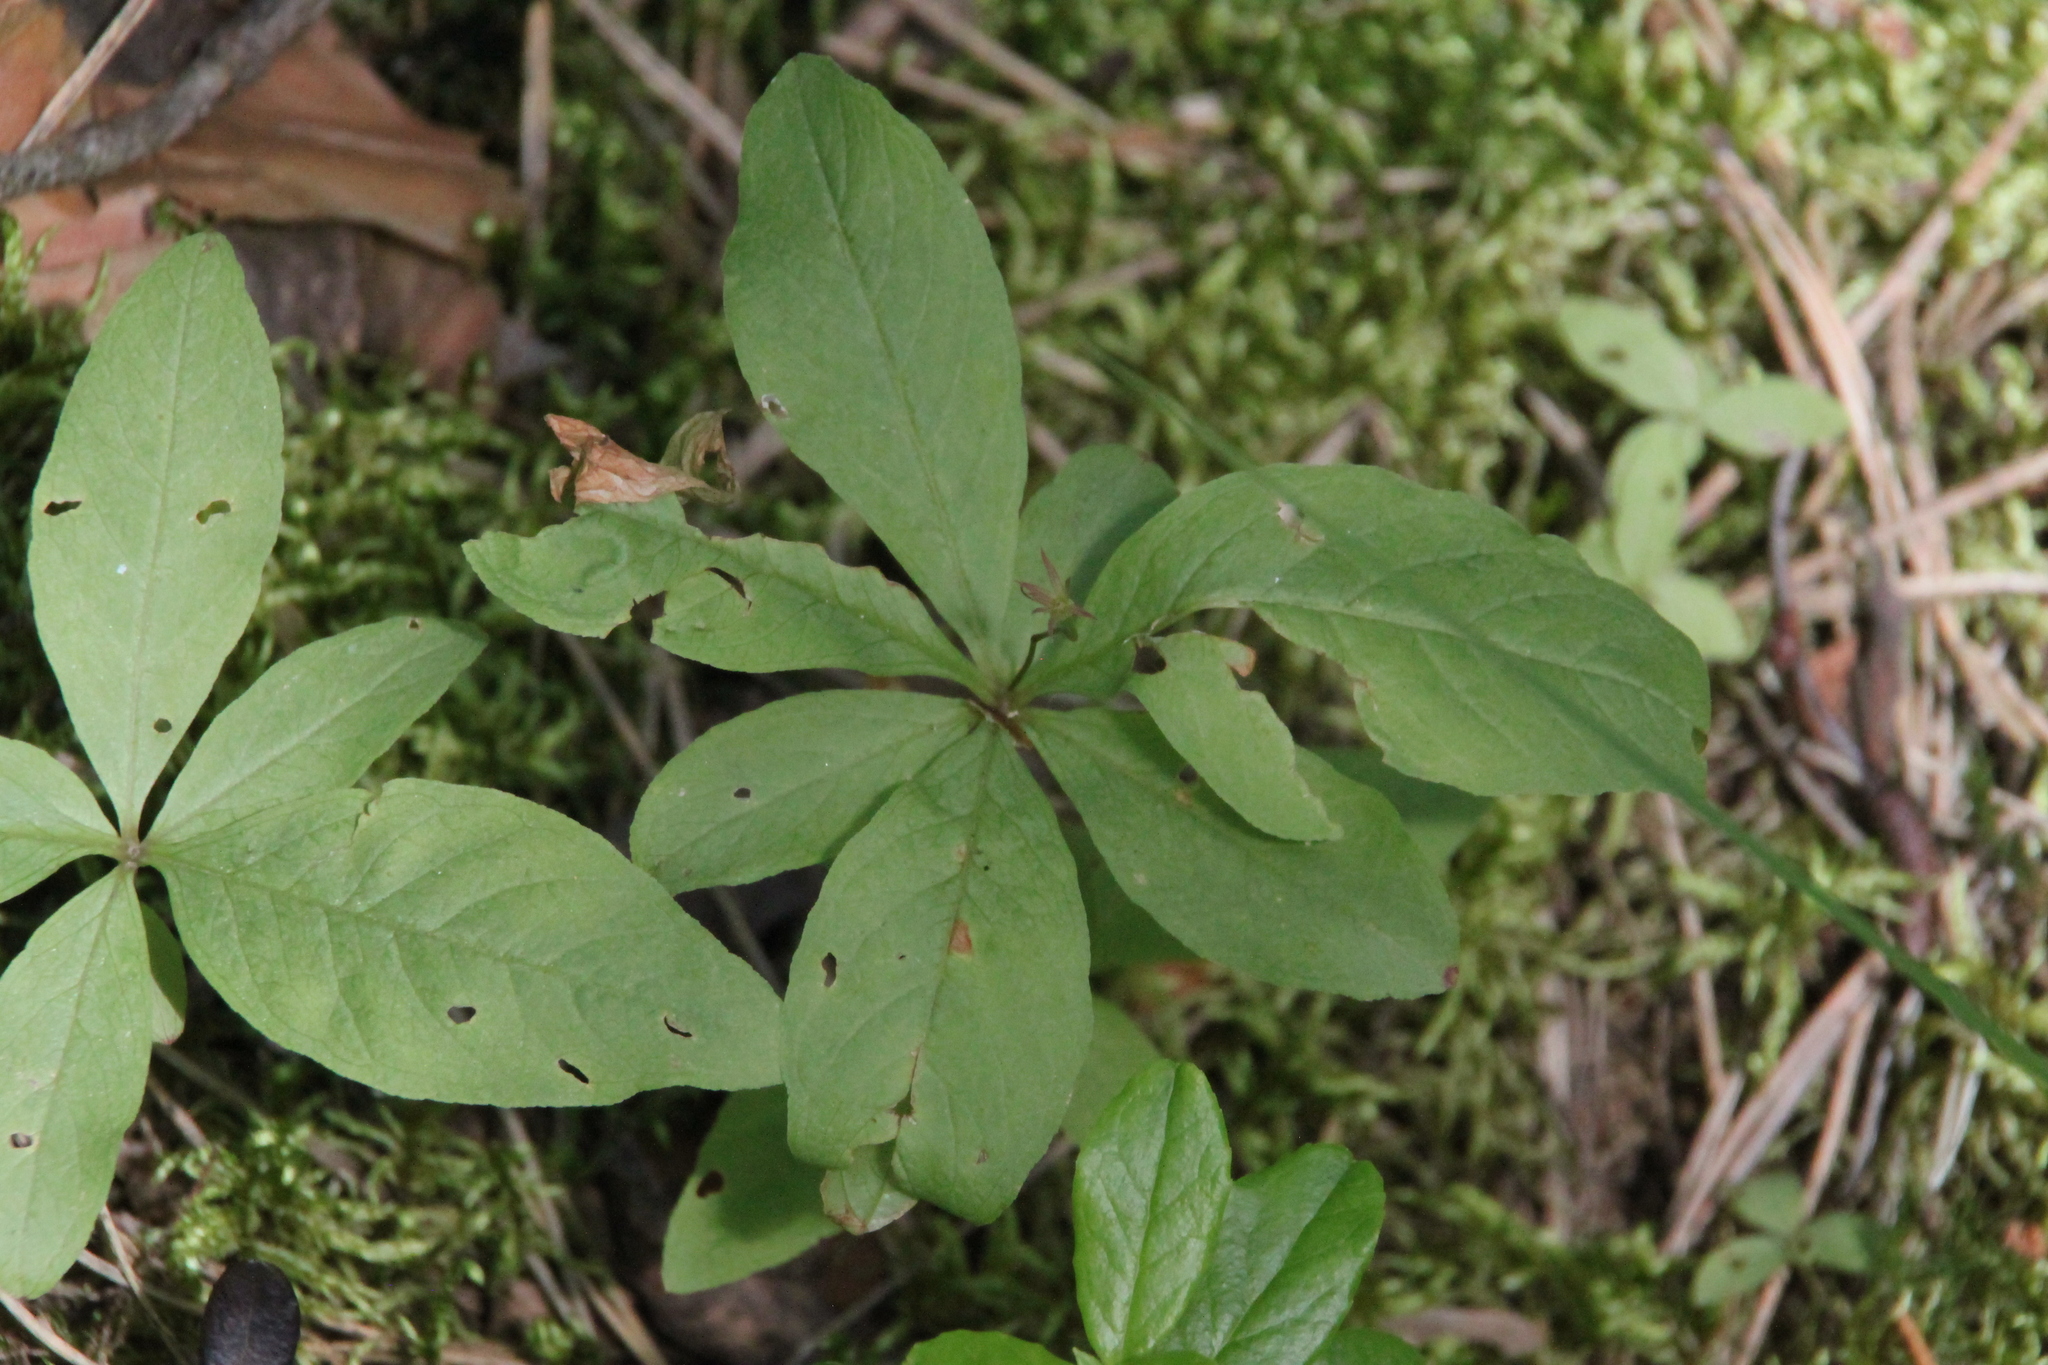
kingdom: Plantae
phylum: Tracheophyta
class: Magnoliopsida
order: Ericales
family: Primulaceae
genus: Lysimachia
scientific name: Lysimachia europaea
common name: Arctic starflower
